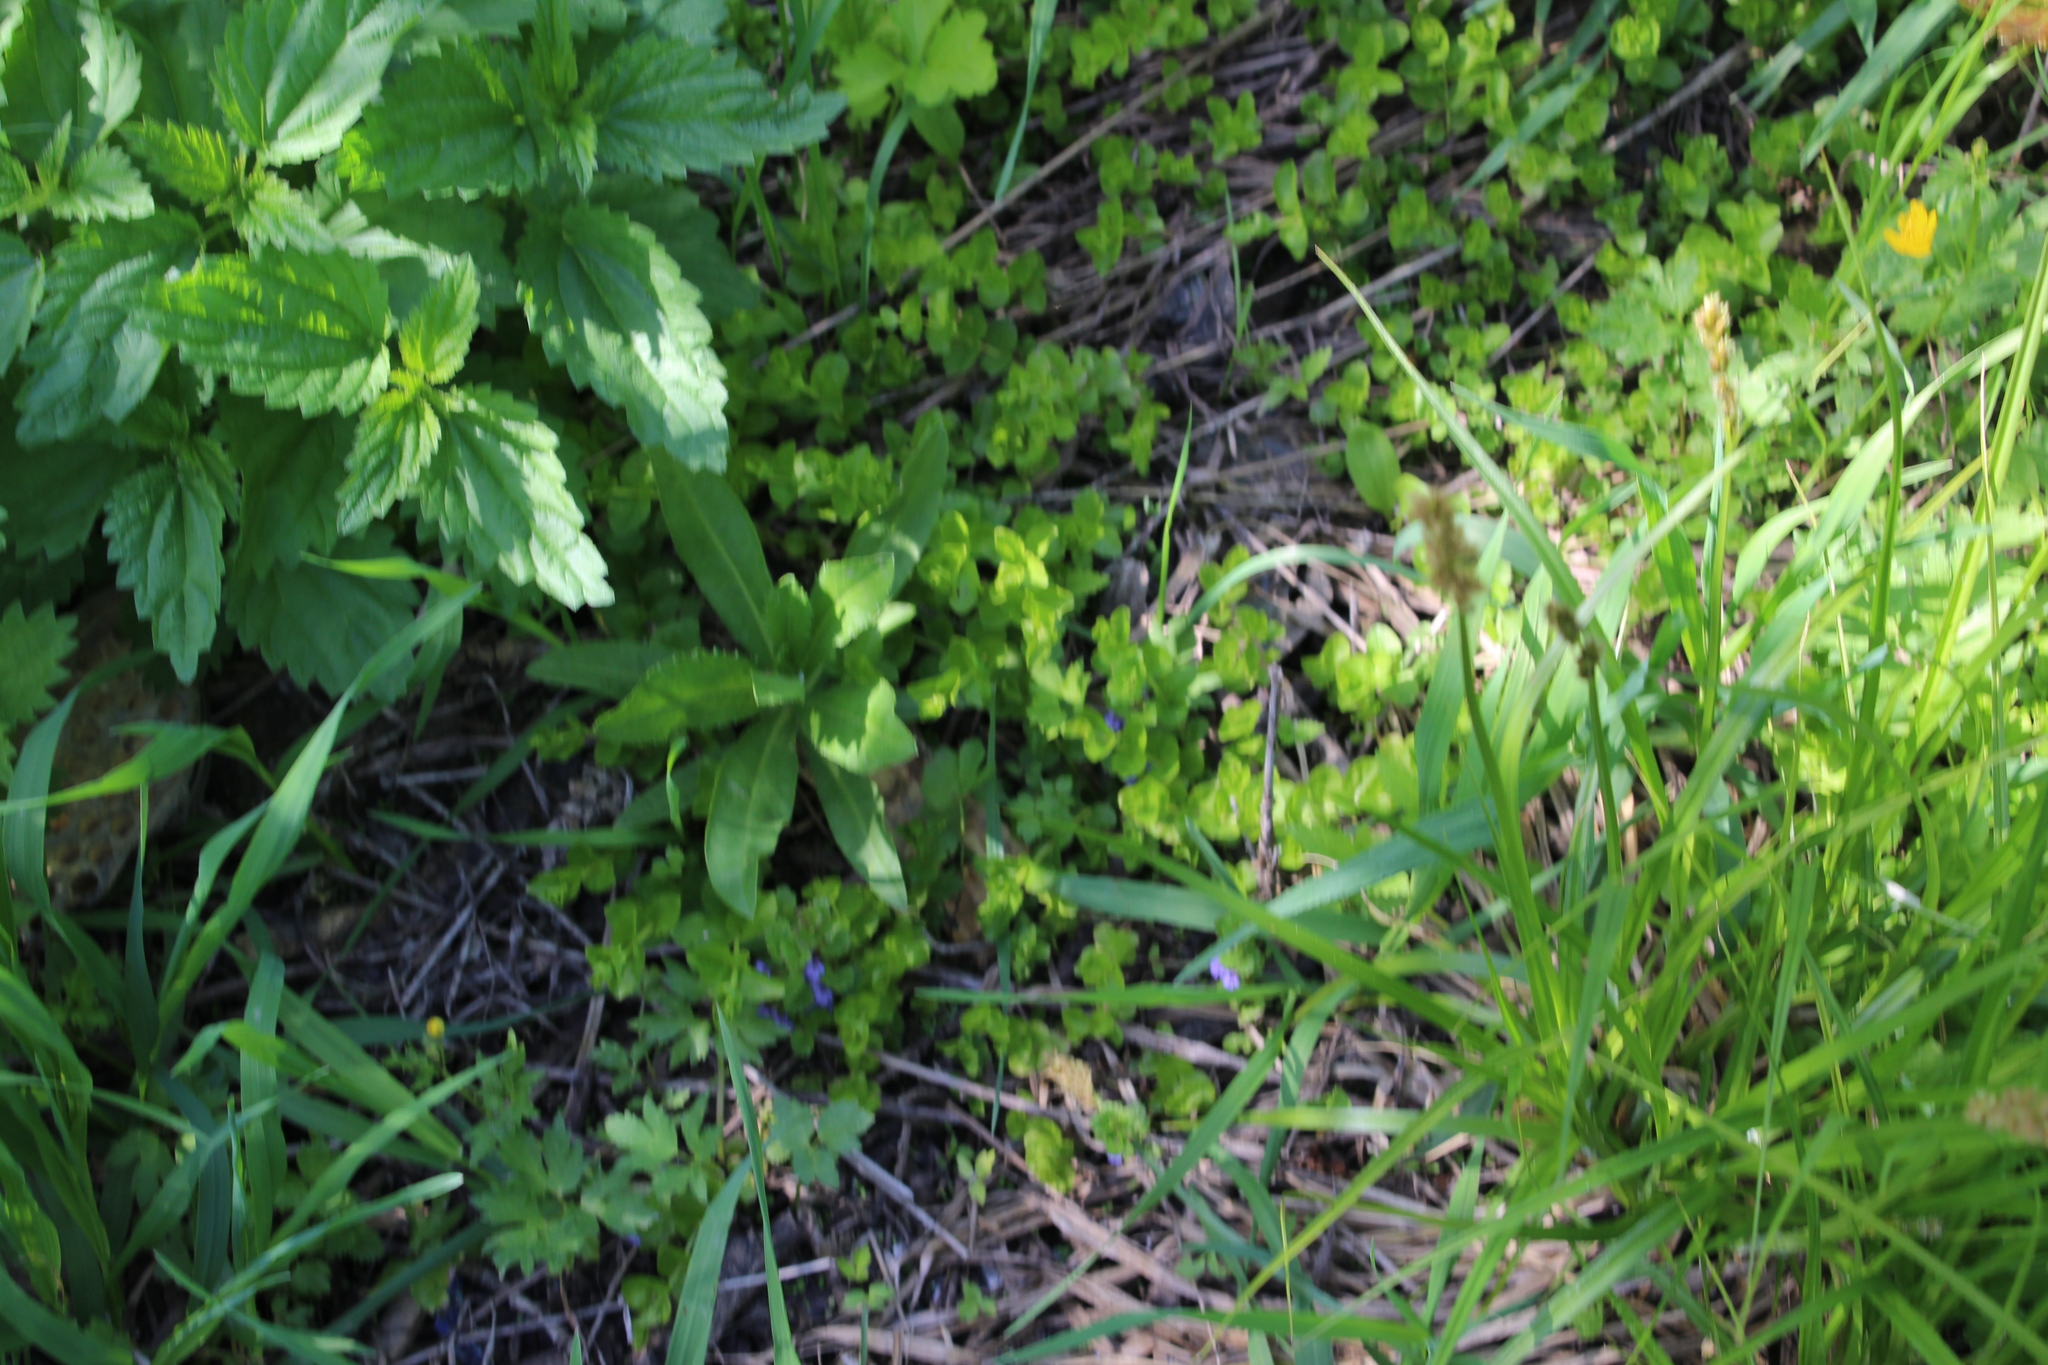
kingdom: Plantae
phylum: Tracheophyta
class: Magnoliopsida
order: Lamiales
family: Lamiaceae
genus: Glechoma
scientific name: Glechoma hederacea
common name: Ground ivy
